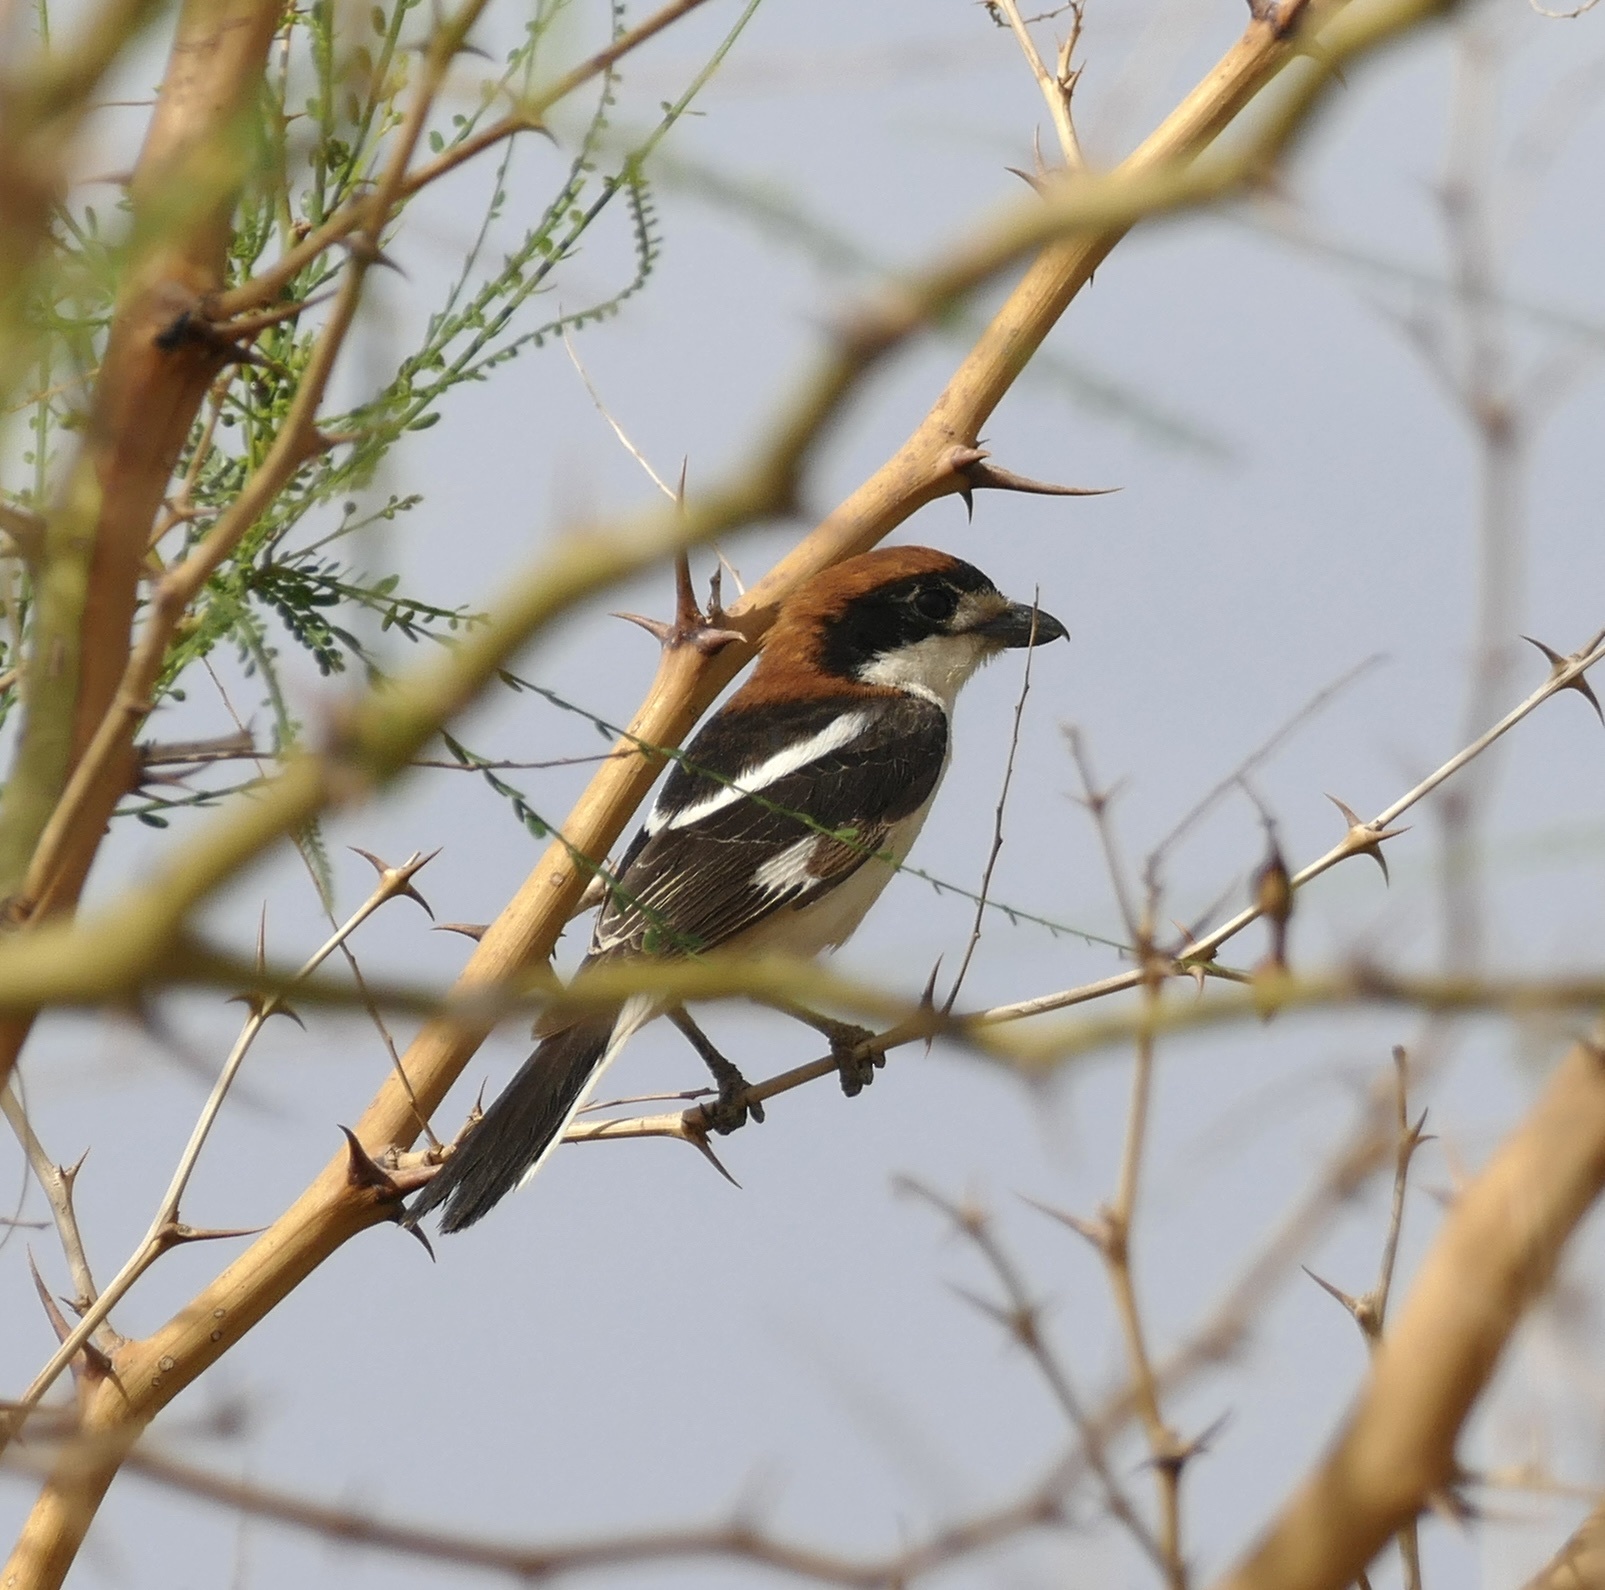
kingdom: Animalia
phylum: Chordata
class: Aves
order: Passeriformes
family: Laniidae
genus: Lanius
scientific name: Lanius senator
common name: Woodchat shrike
